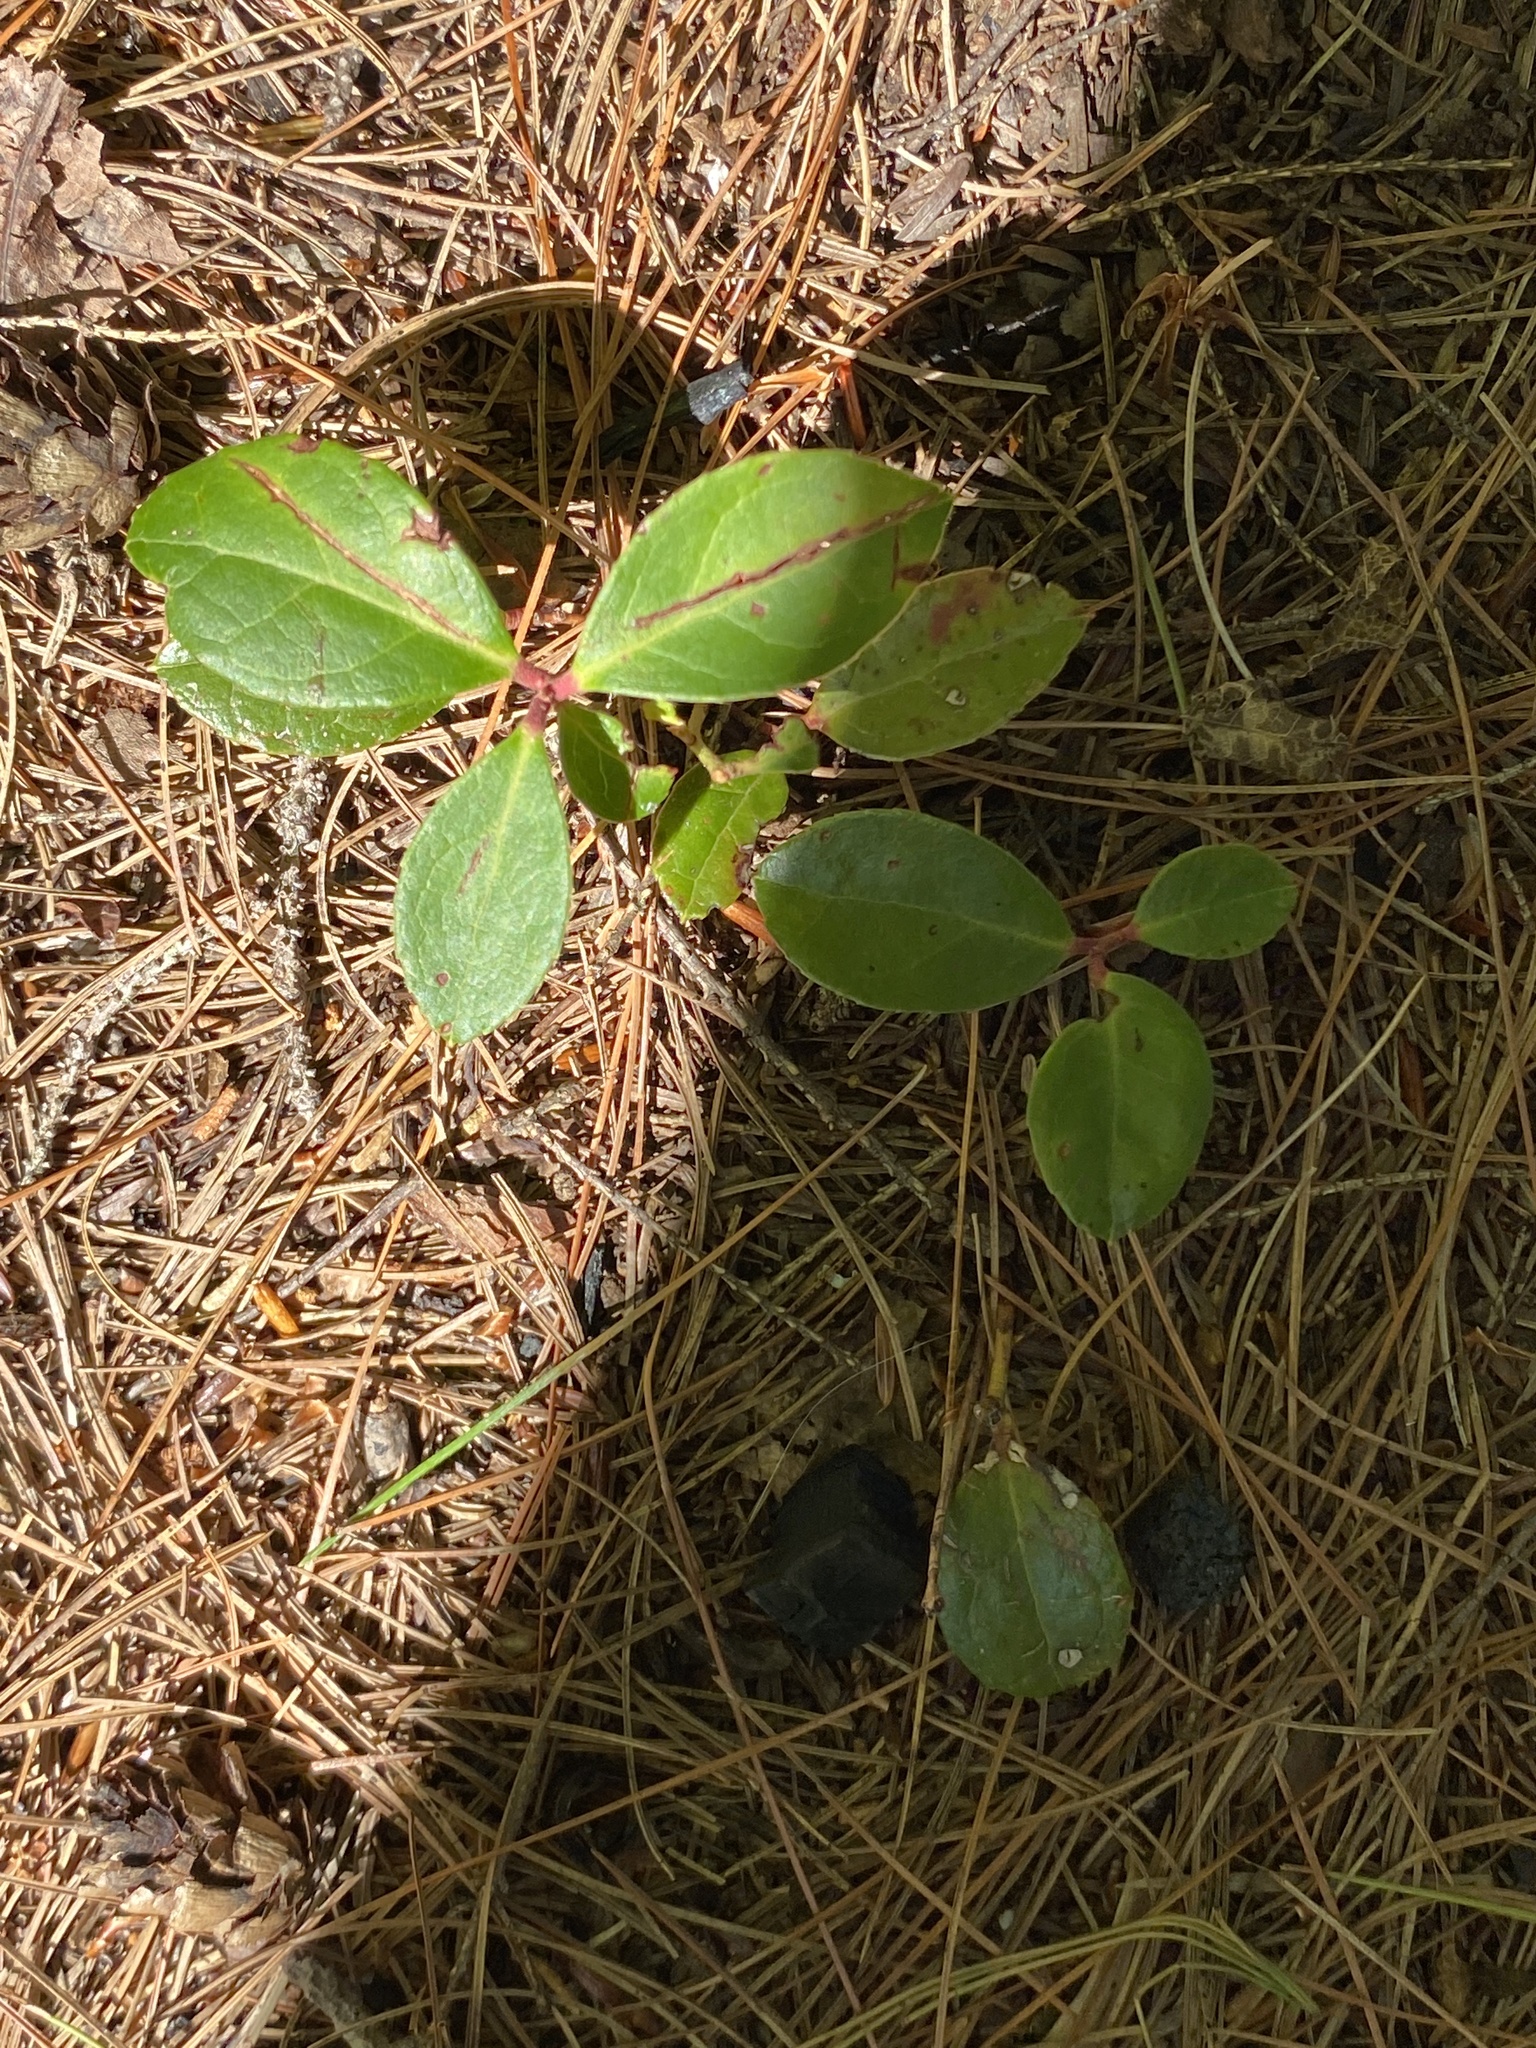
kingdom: Plantae
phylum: Tracheophyta
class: Magnoliopsida
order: Ericales
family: Ericaceae
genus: Gaultheria
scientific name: Gaultheria procumbens
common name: Checkerberry
